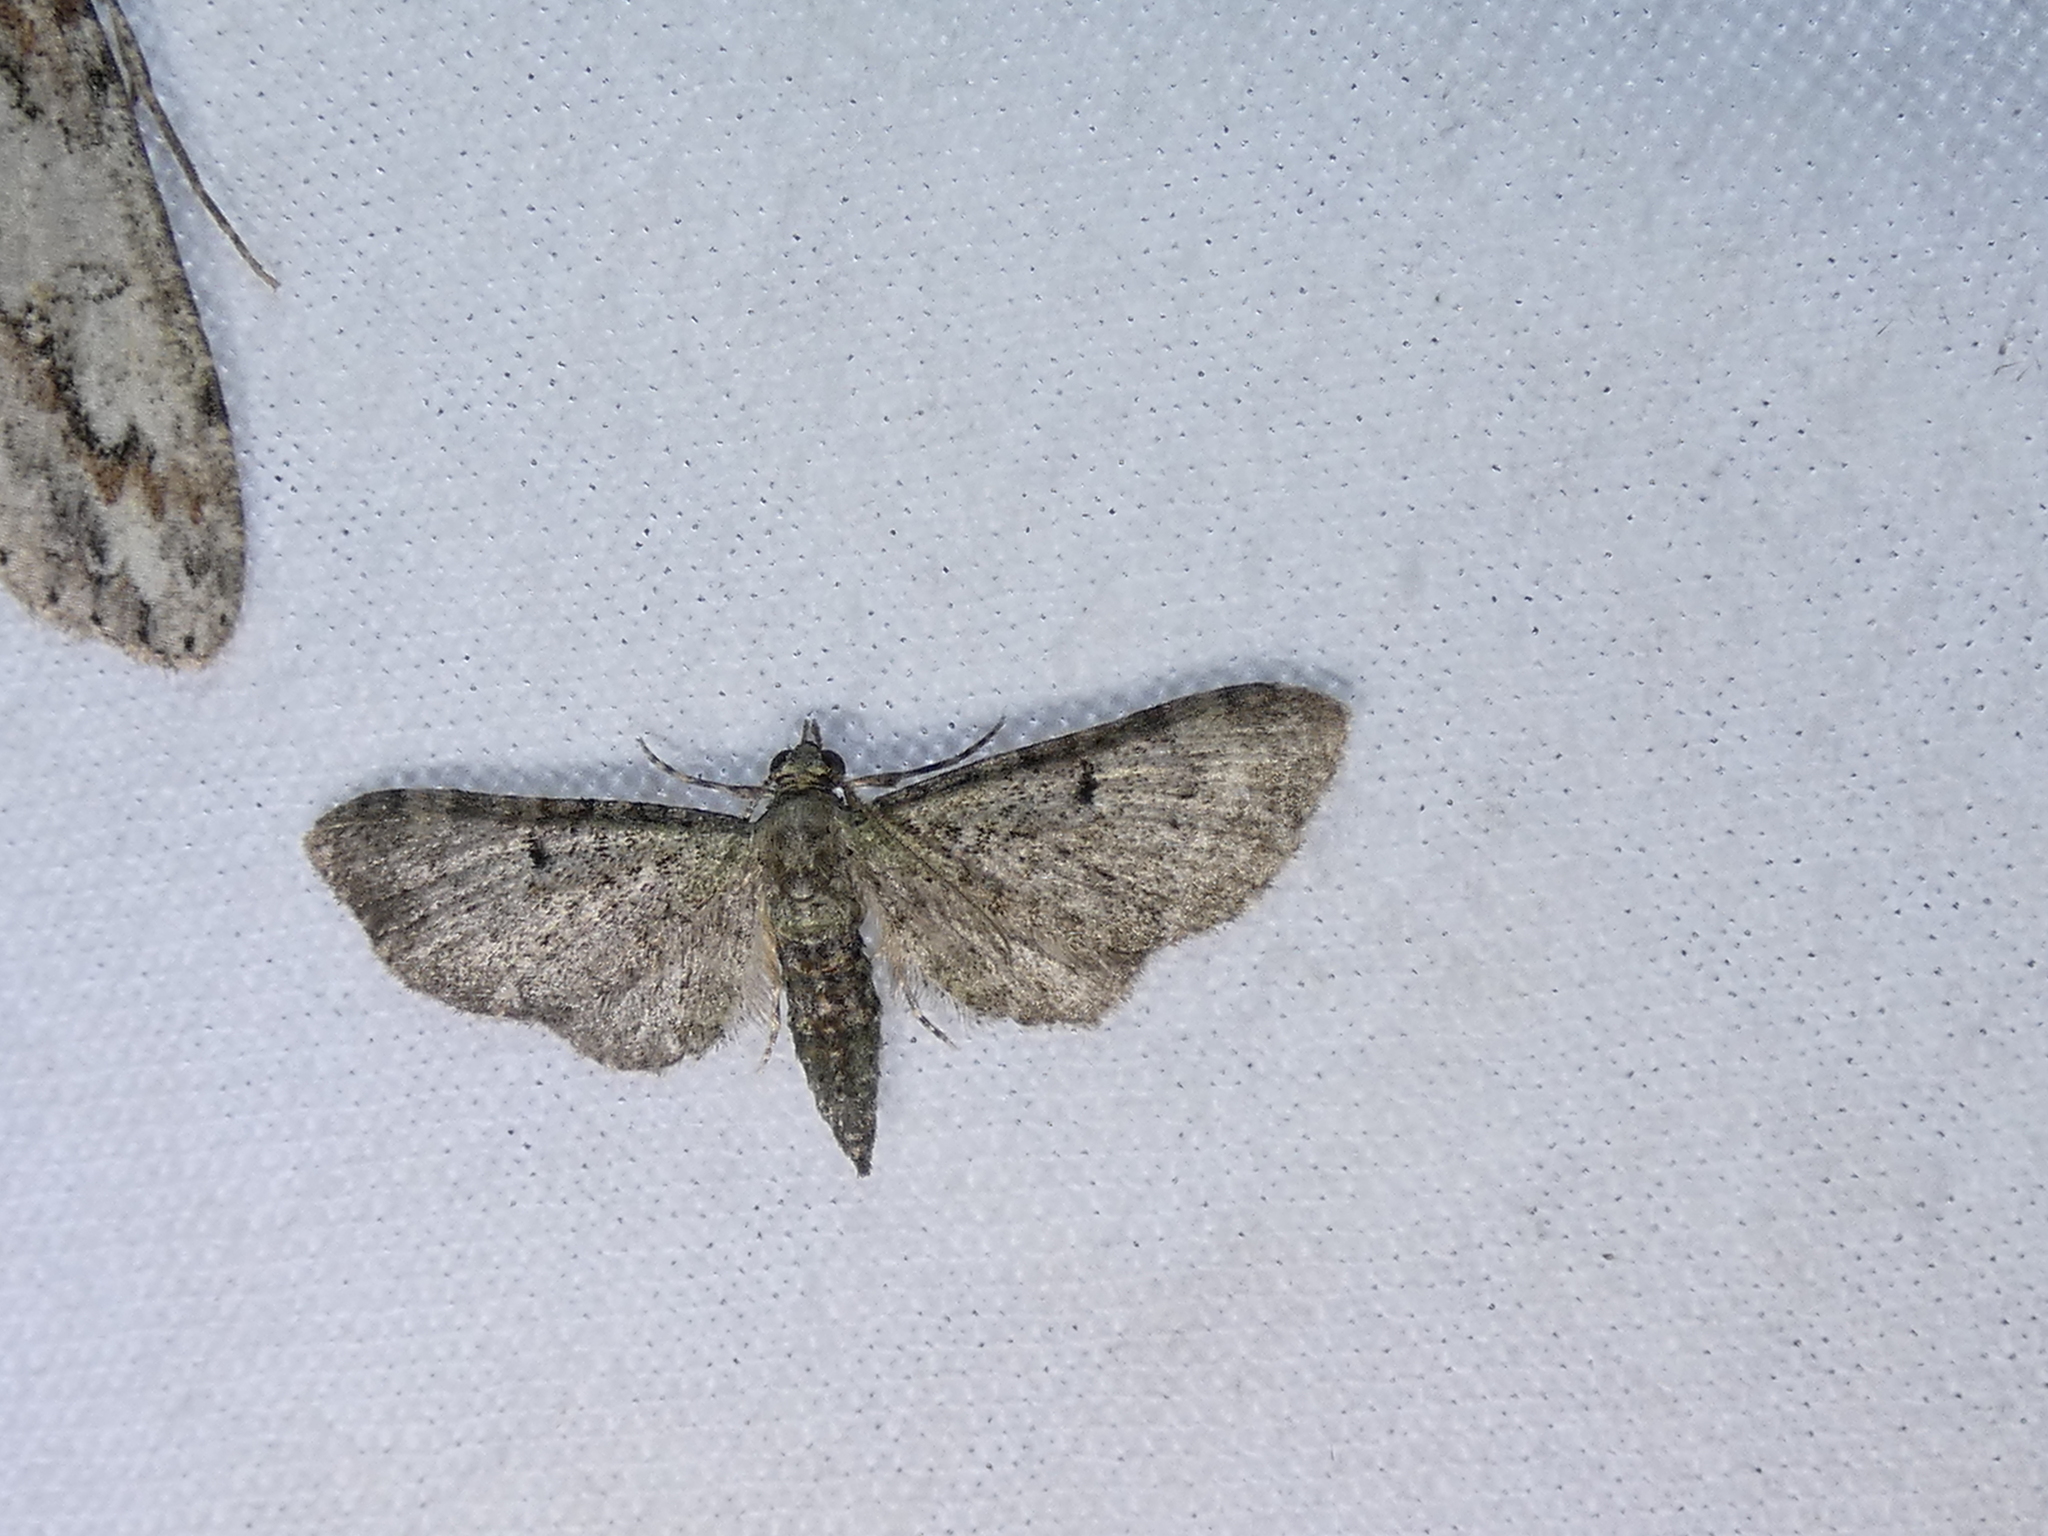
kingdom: Animalia
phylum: Arthropoda
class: Insecta
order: Lepidoptera
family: Geometridae
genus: Eupithecia
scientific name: Eupithecia miserulata
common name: Common eupithecia
